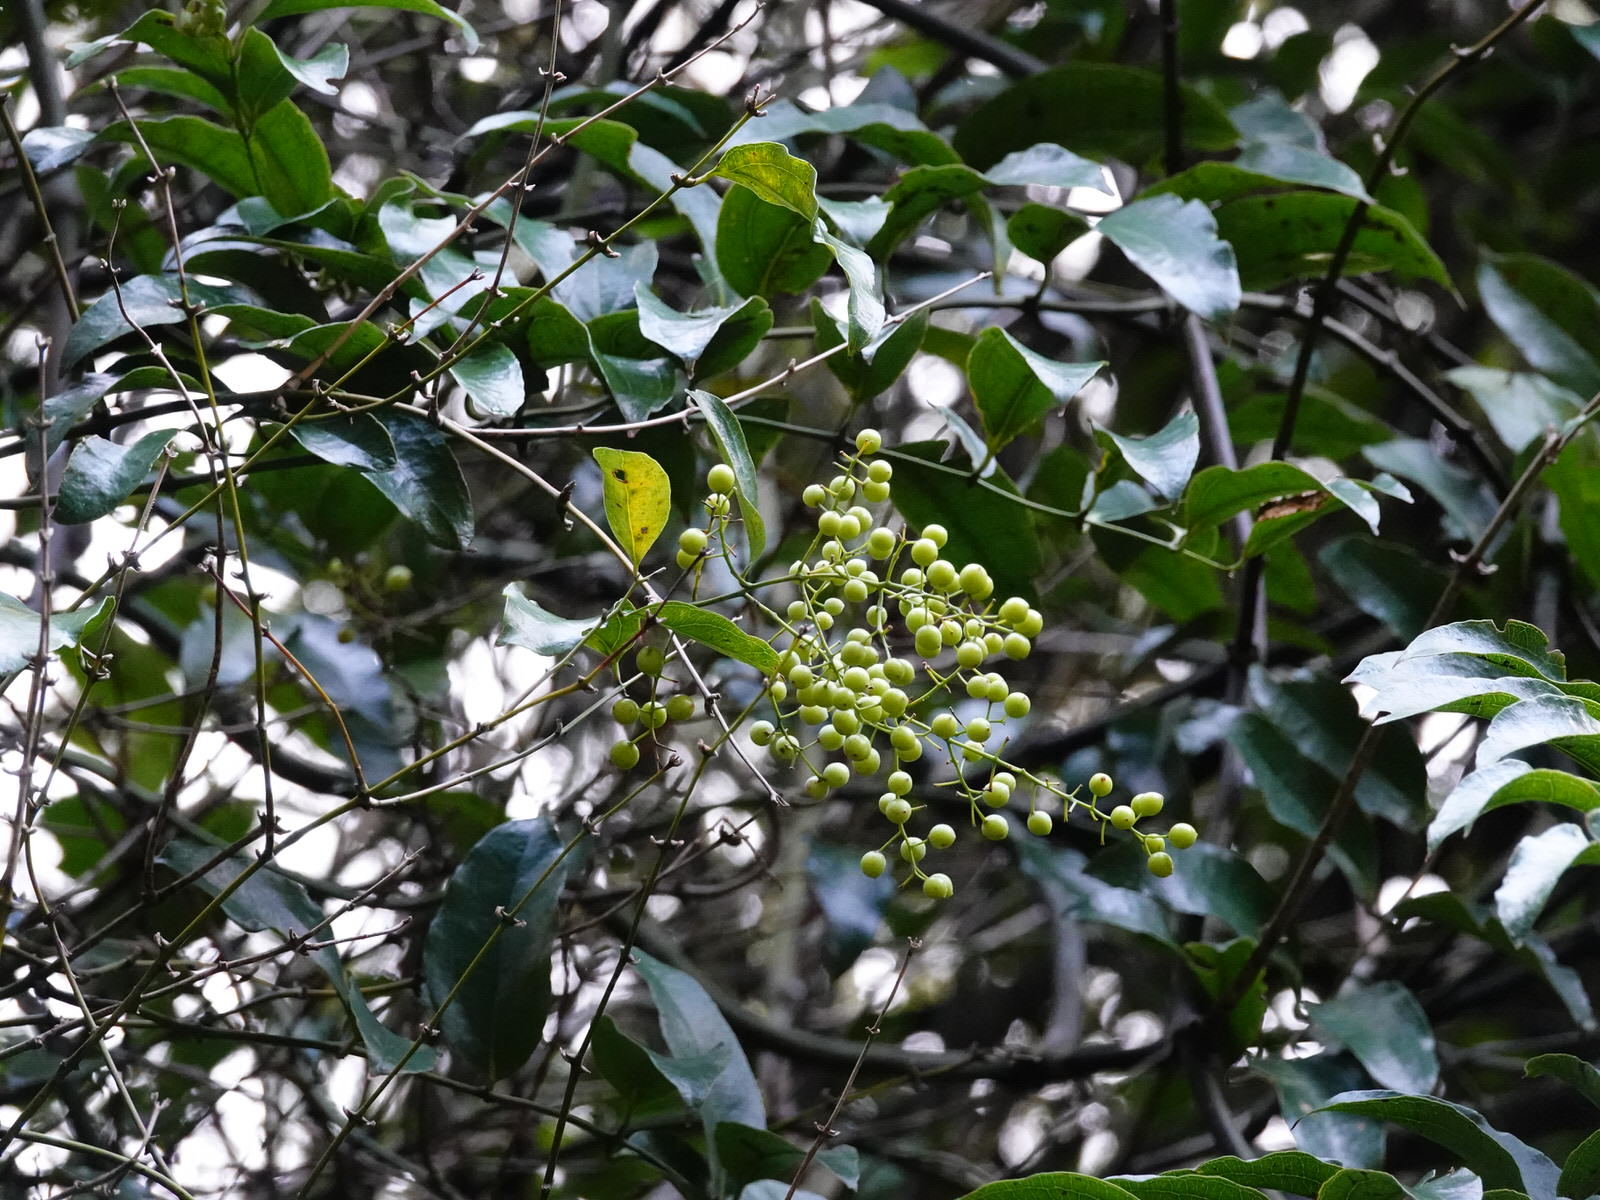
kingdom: Plantae
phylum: Tracheophyta
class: Liliopsida
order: Liliales
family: Ripogonaceae
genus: Ripogonum
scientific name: Ripogonum scandens
